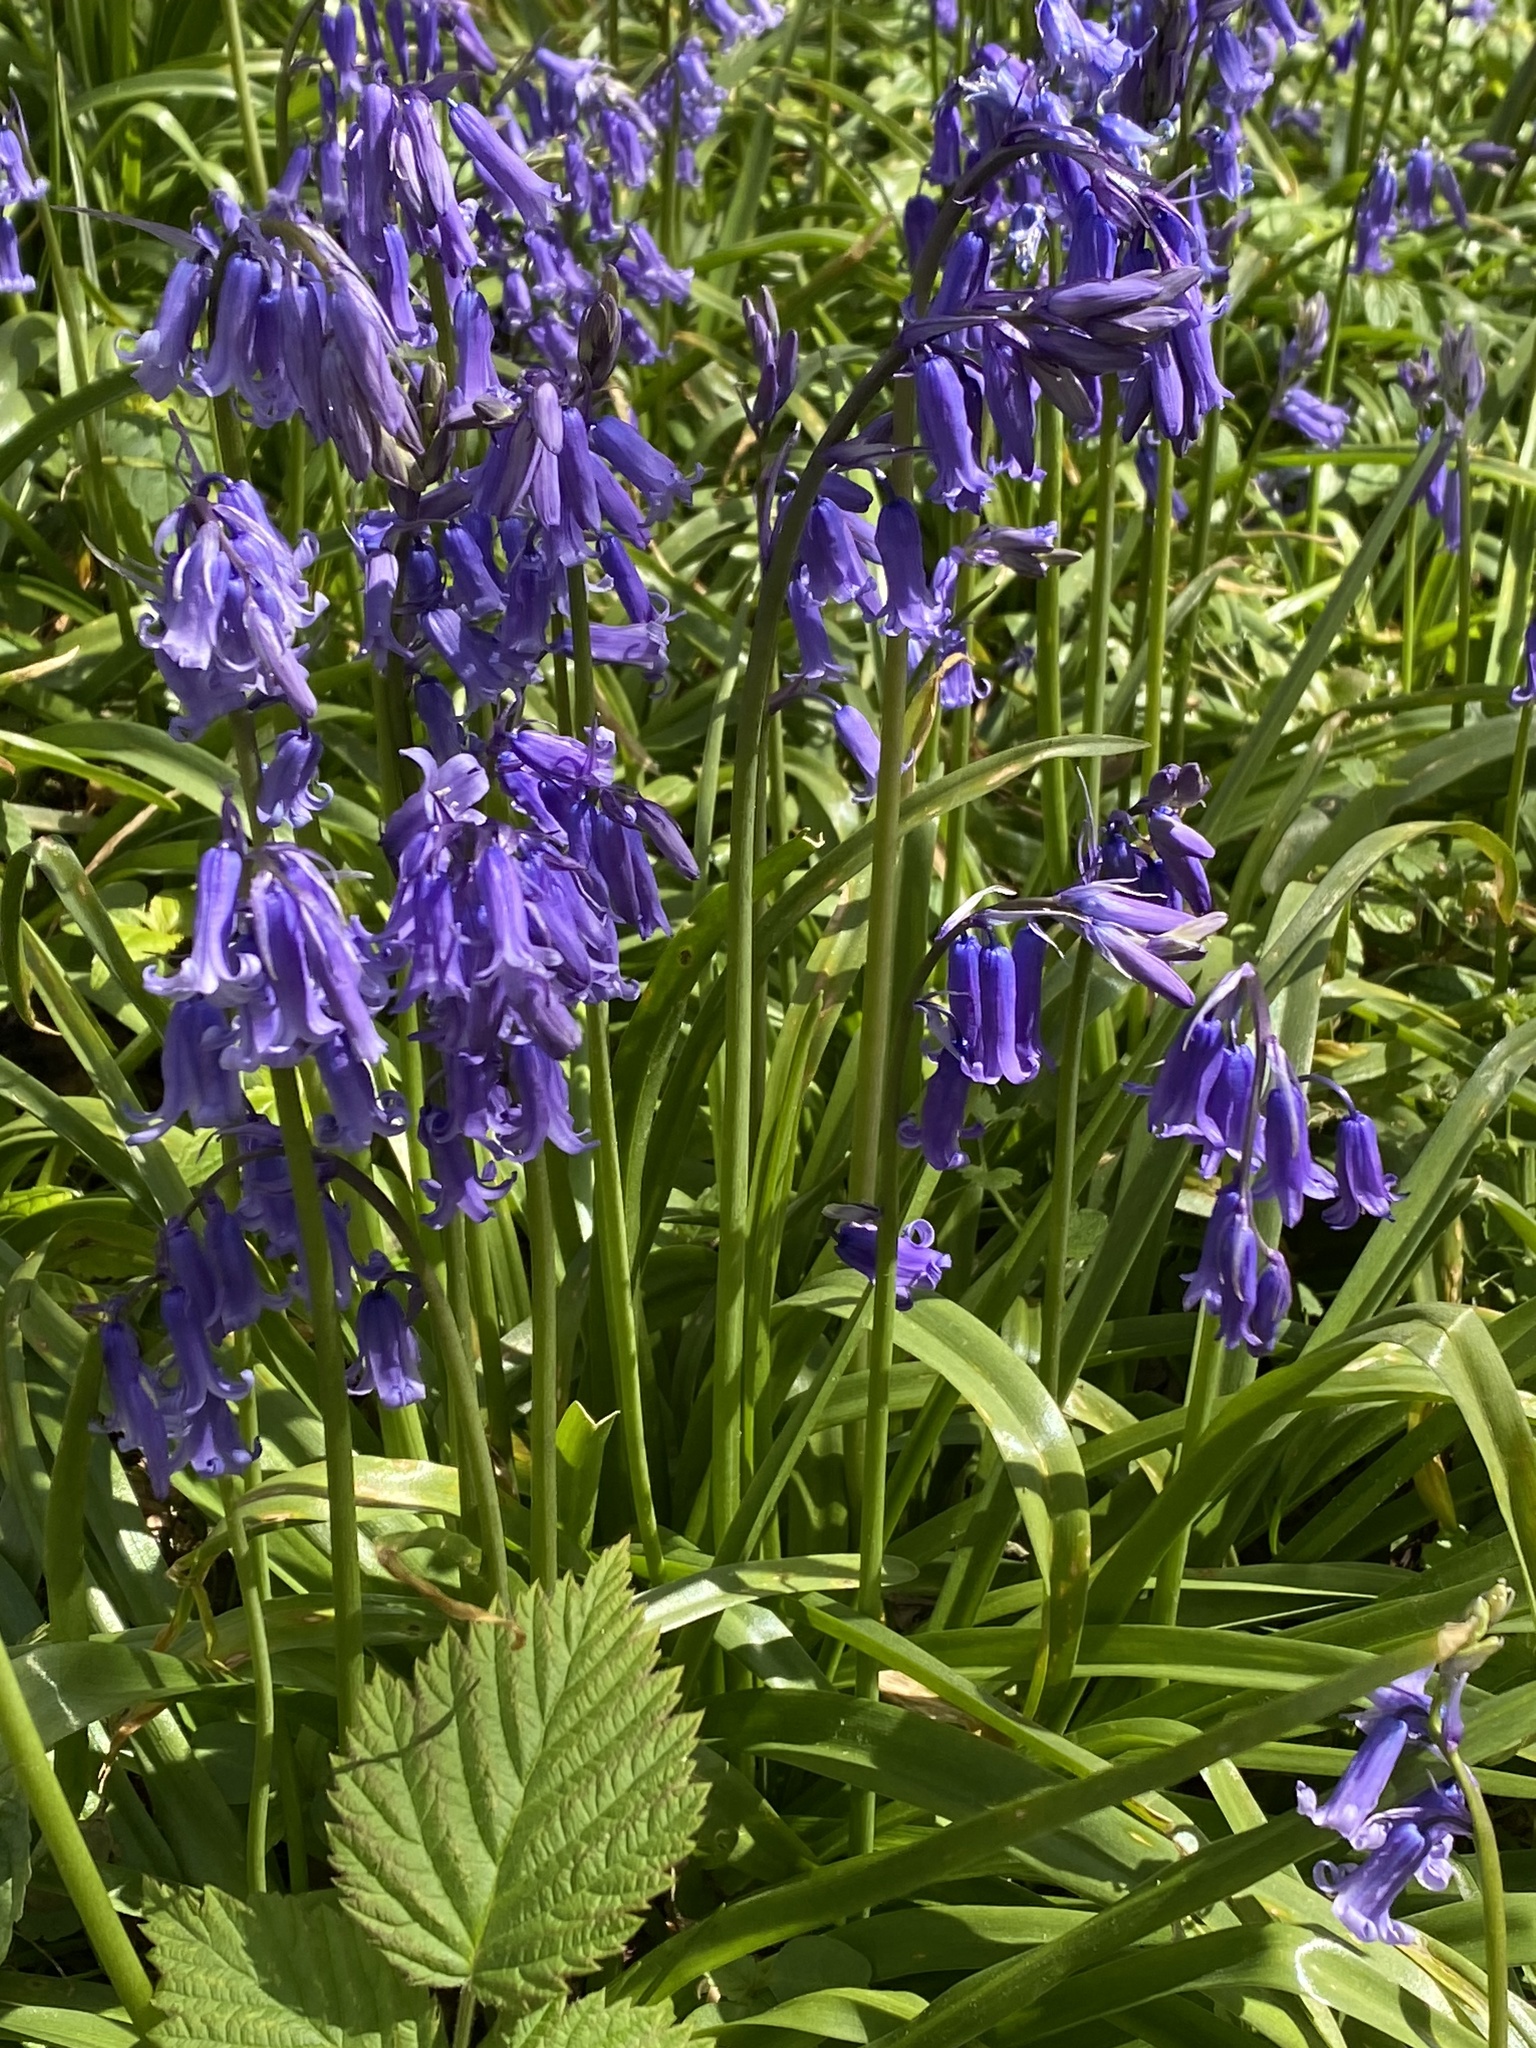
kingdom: Plantae
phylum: Tracheophyta
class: Liliopsida
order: Asparagales
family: Asparagaceae
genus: Hyacinthoides
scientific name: Hyacinthoides non-scripta
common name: Bluebell
